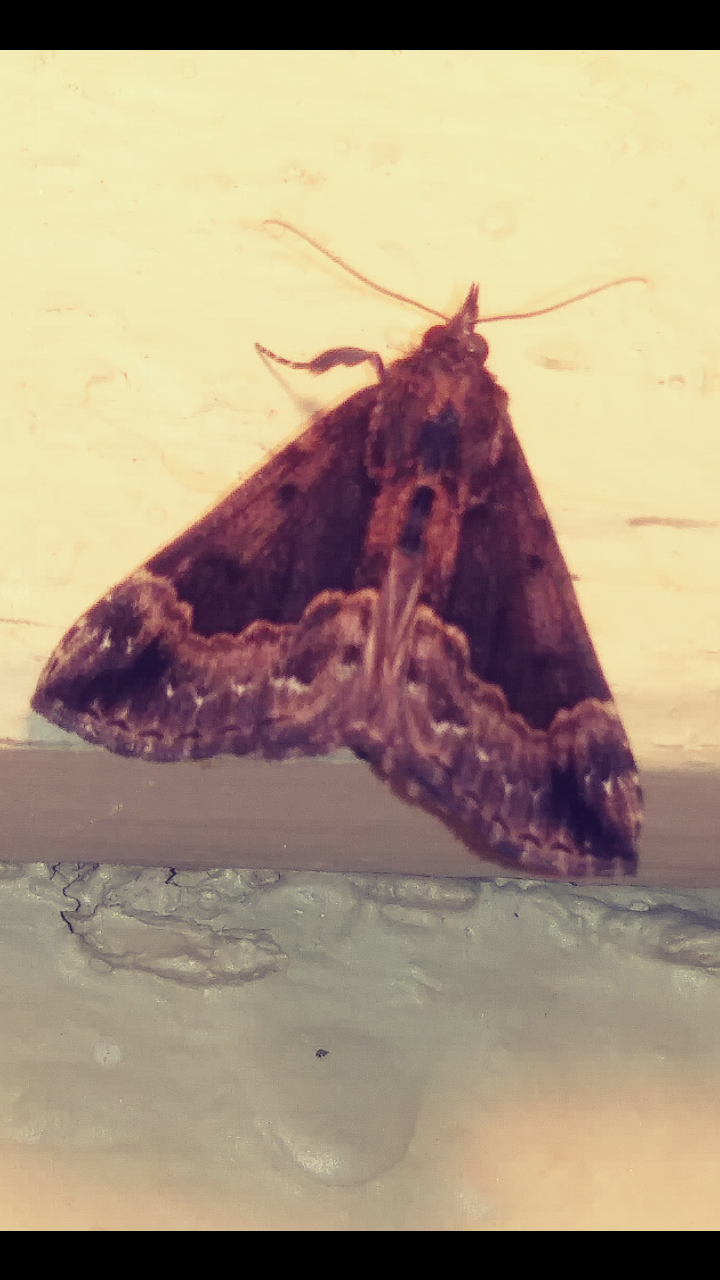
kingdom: Animalia
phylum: Arthropoda
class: Insecta
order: Lepidoptera
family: Erebidae
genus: Hypena
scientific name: Hypena baltimoralis
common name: Baltimore snout
